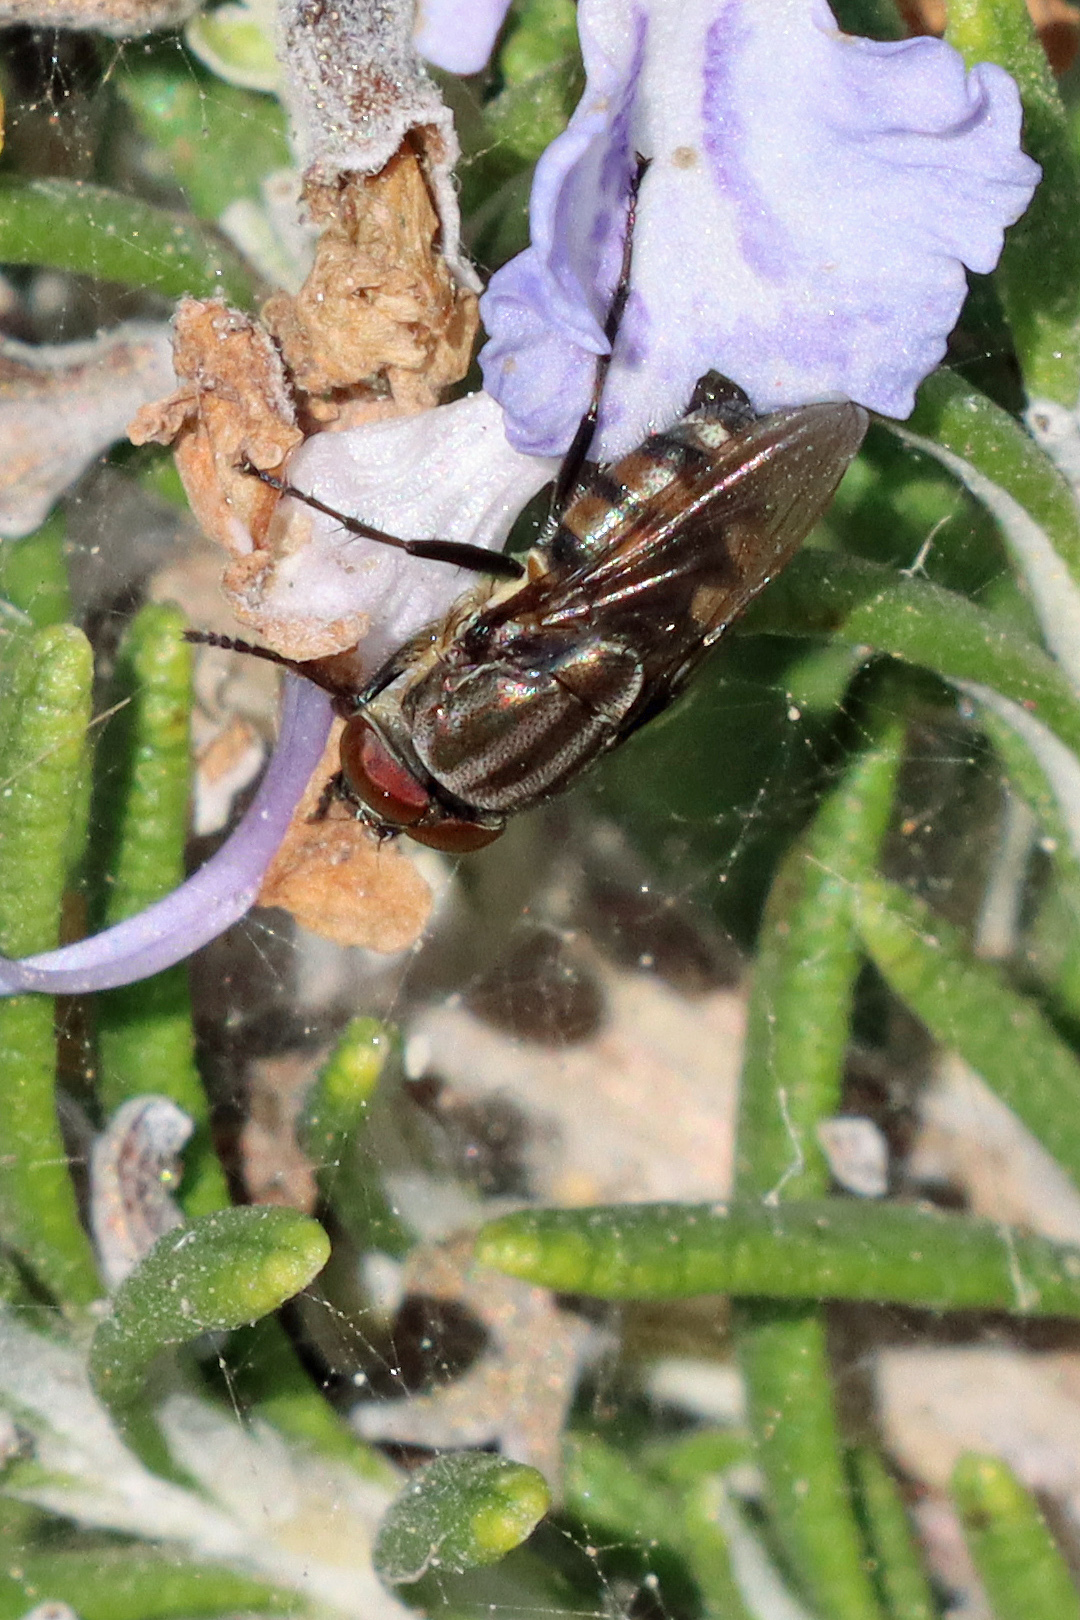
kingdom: Animalia
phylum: Arthropoda
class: Insecta
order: Diptera
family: Calliphoridae
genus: Stomorhina
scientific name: Stomorhina lunata
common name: Locust blowfly
